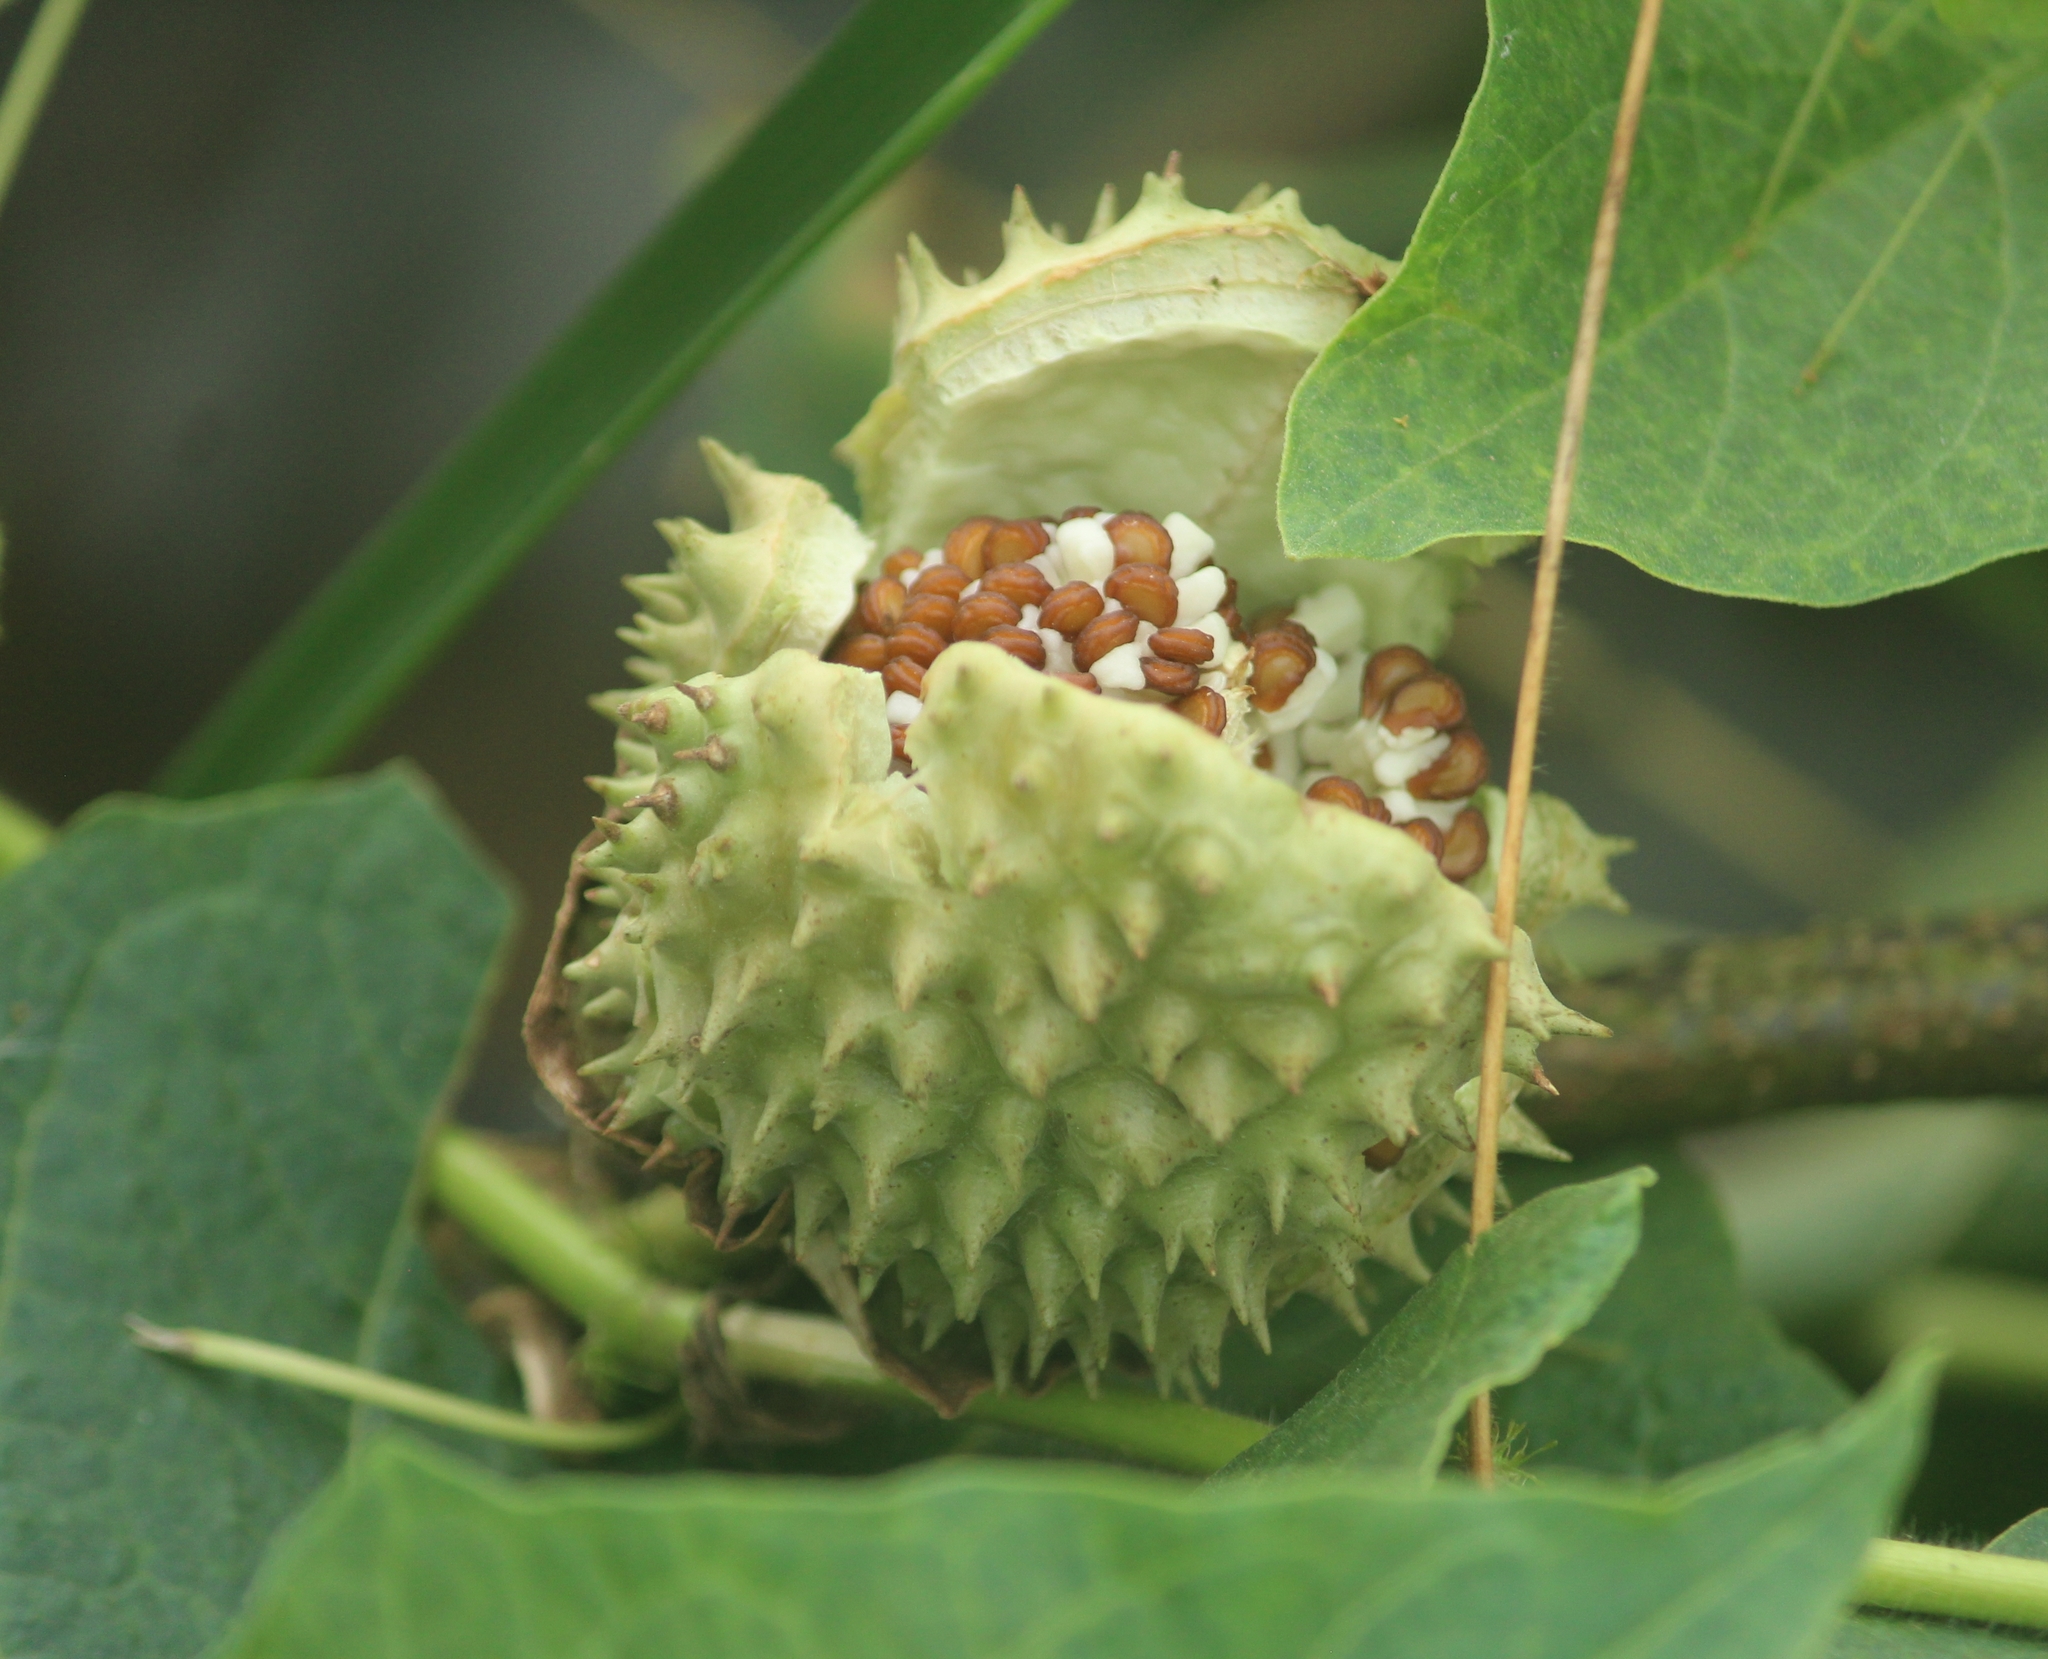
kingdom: Plantae
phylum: Tracheophyta
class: Magnoliopsida
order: Solanales
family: Solanaceae
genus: Datura
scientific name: Datura metel
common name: Jimsonweed
